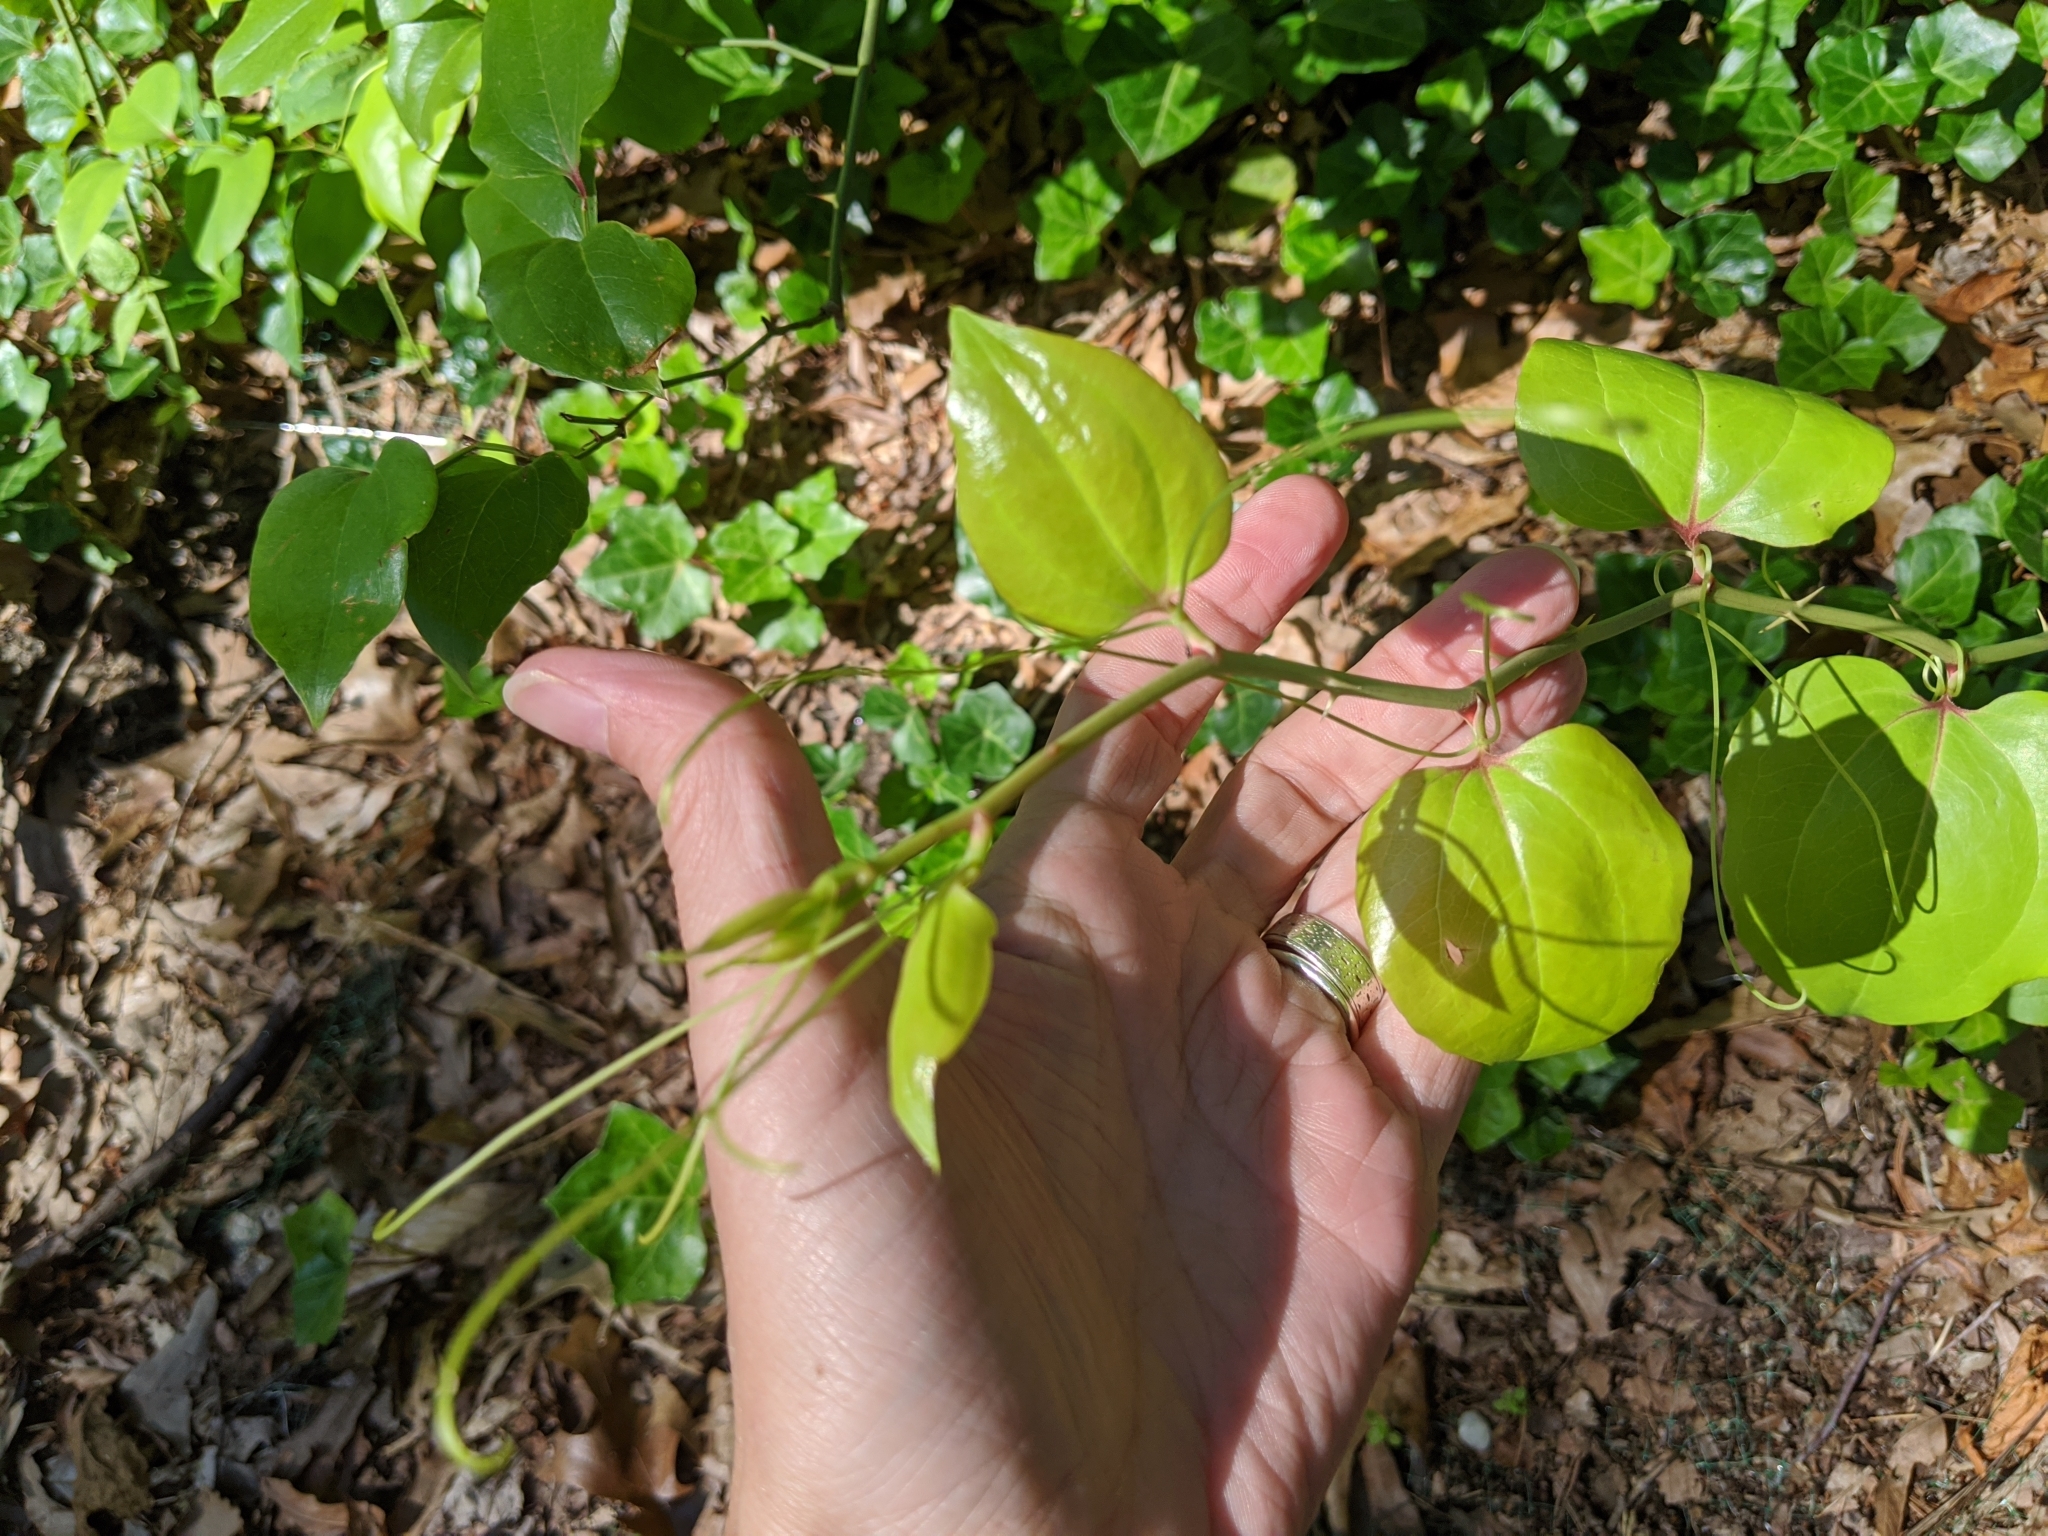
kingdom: Plantae
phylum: Tracheophyta
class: Liliopsida
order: Liliales
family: Smilacaceae
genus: Smilax
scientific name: Smilax rotundifolia
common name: Bullbriar
